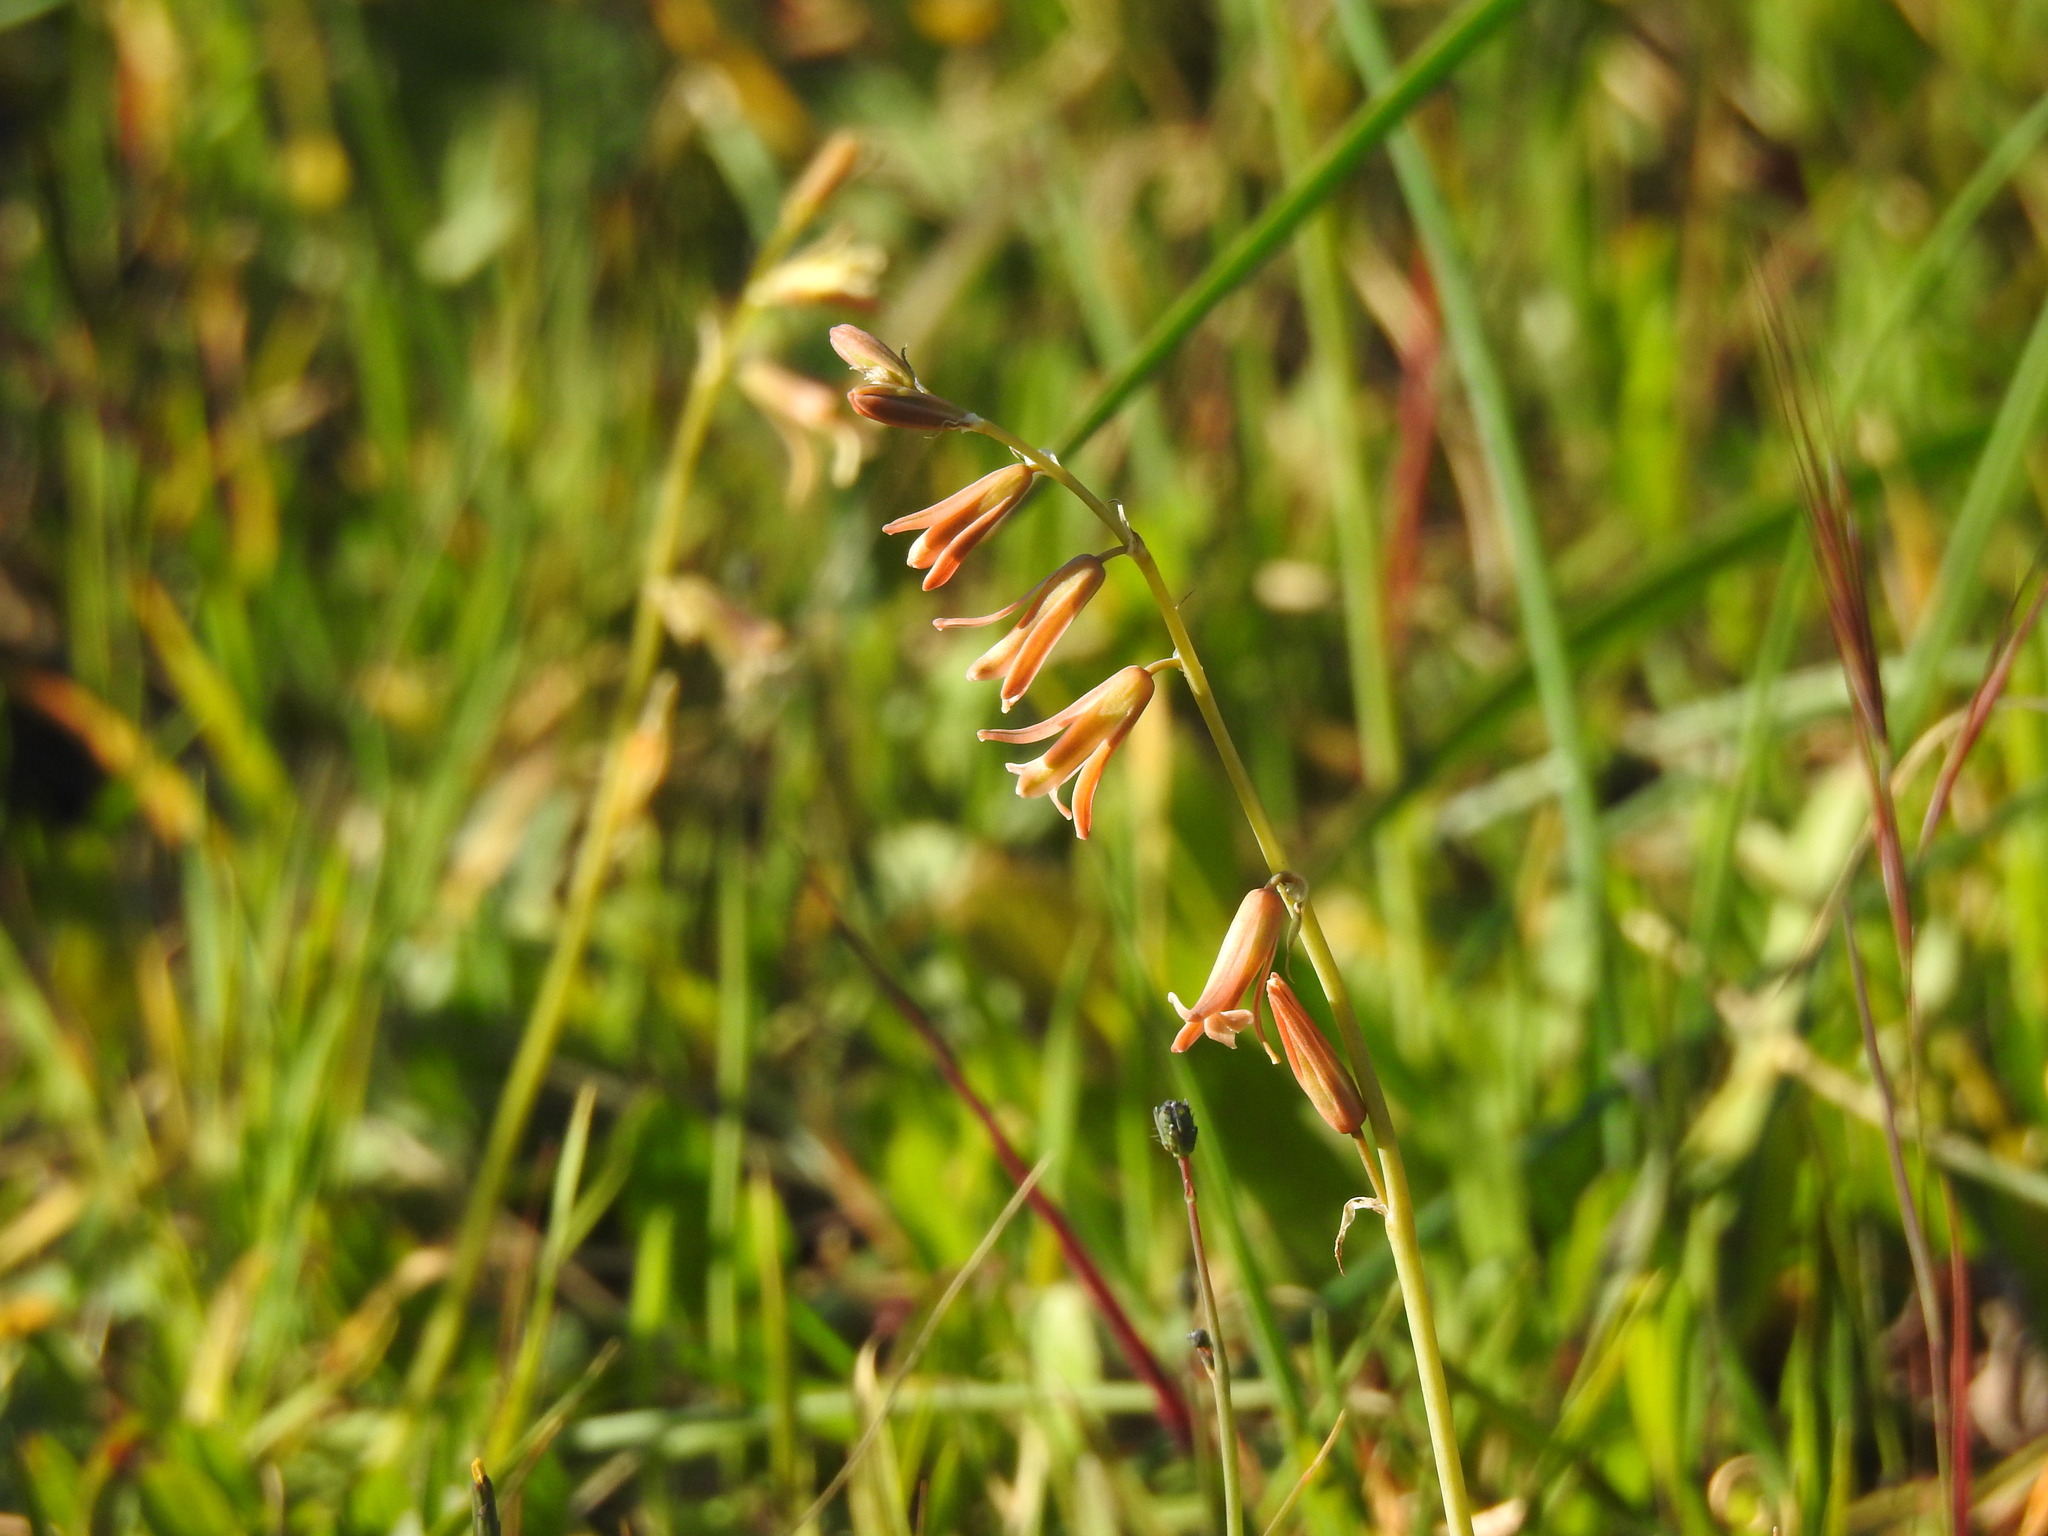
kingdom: Plantae
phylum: Tracheophyta
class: Liliopsida
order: Asparagales
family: Asparagaceae
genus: Dipcadi
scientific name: Dipcadi serotinum
